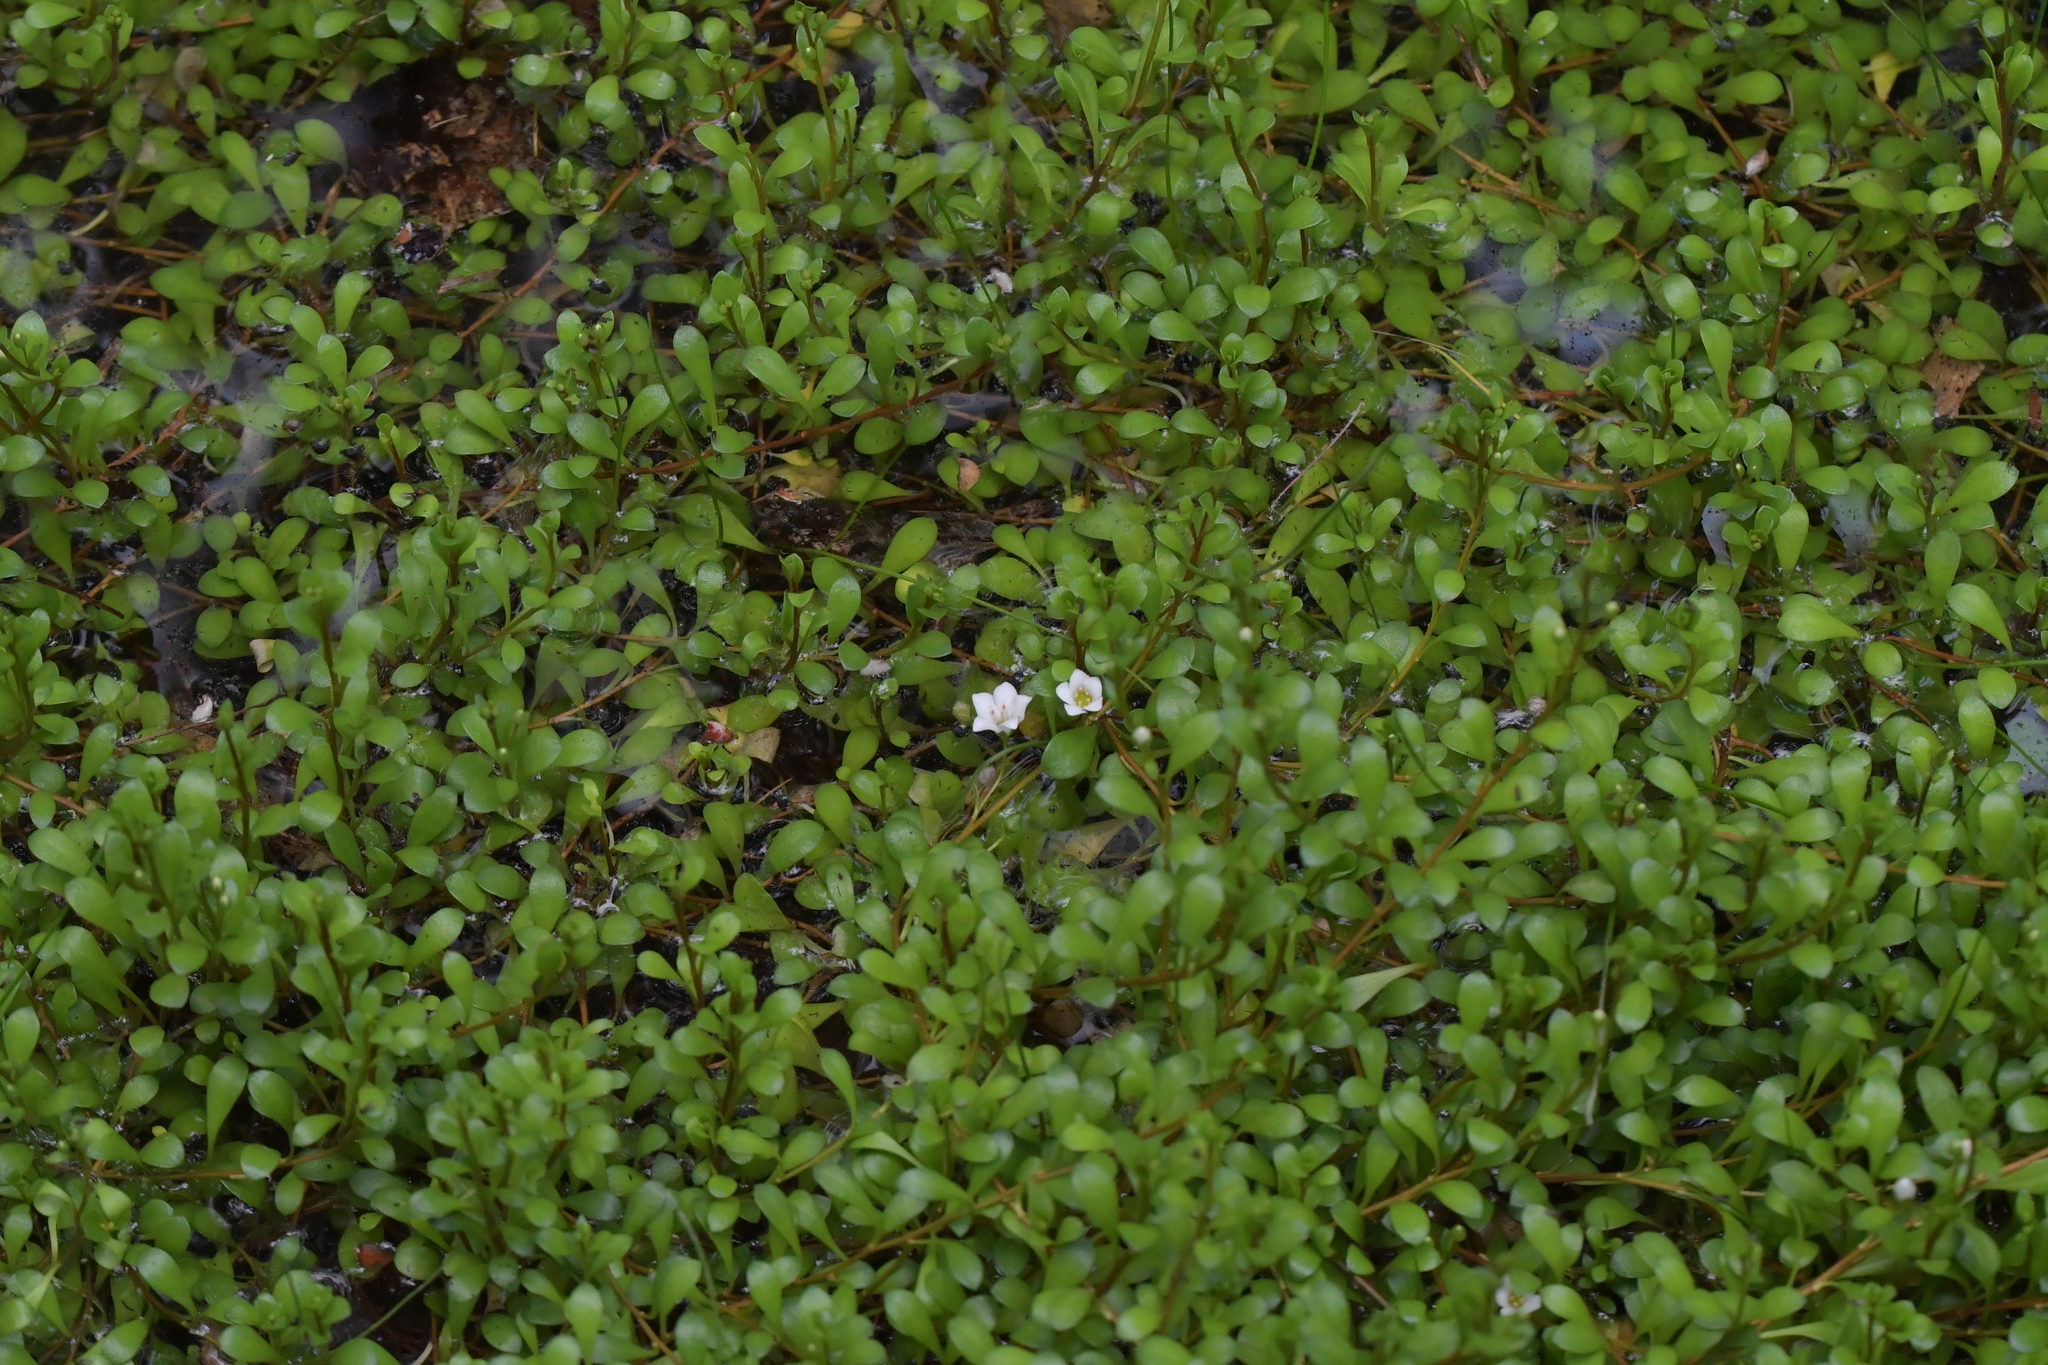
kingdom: Plantae
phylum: Tracheophyta
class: Magnoliopsida
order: Ericales
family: Primulaceae
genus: Samolus
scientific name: Samolus repens
